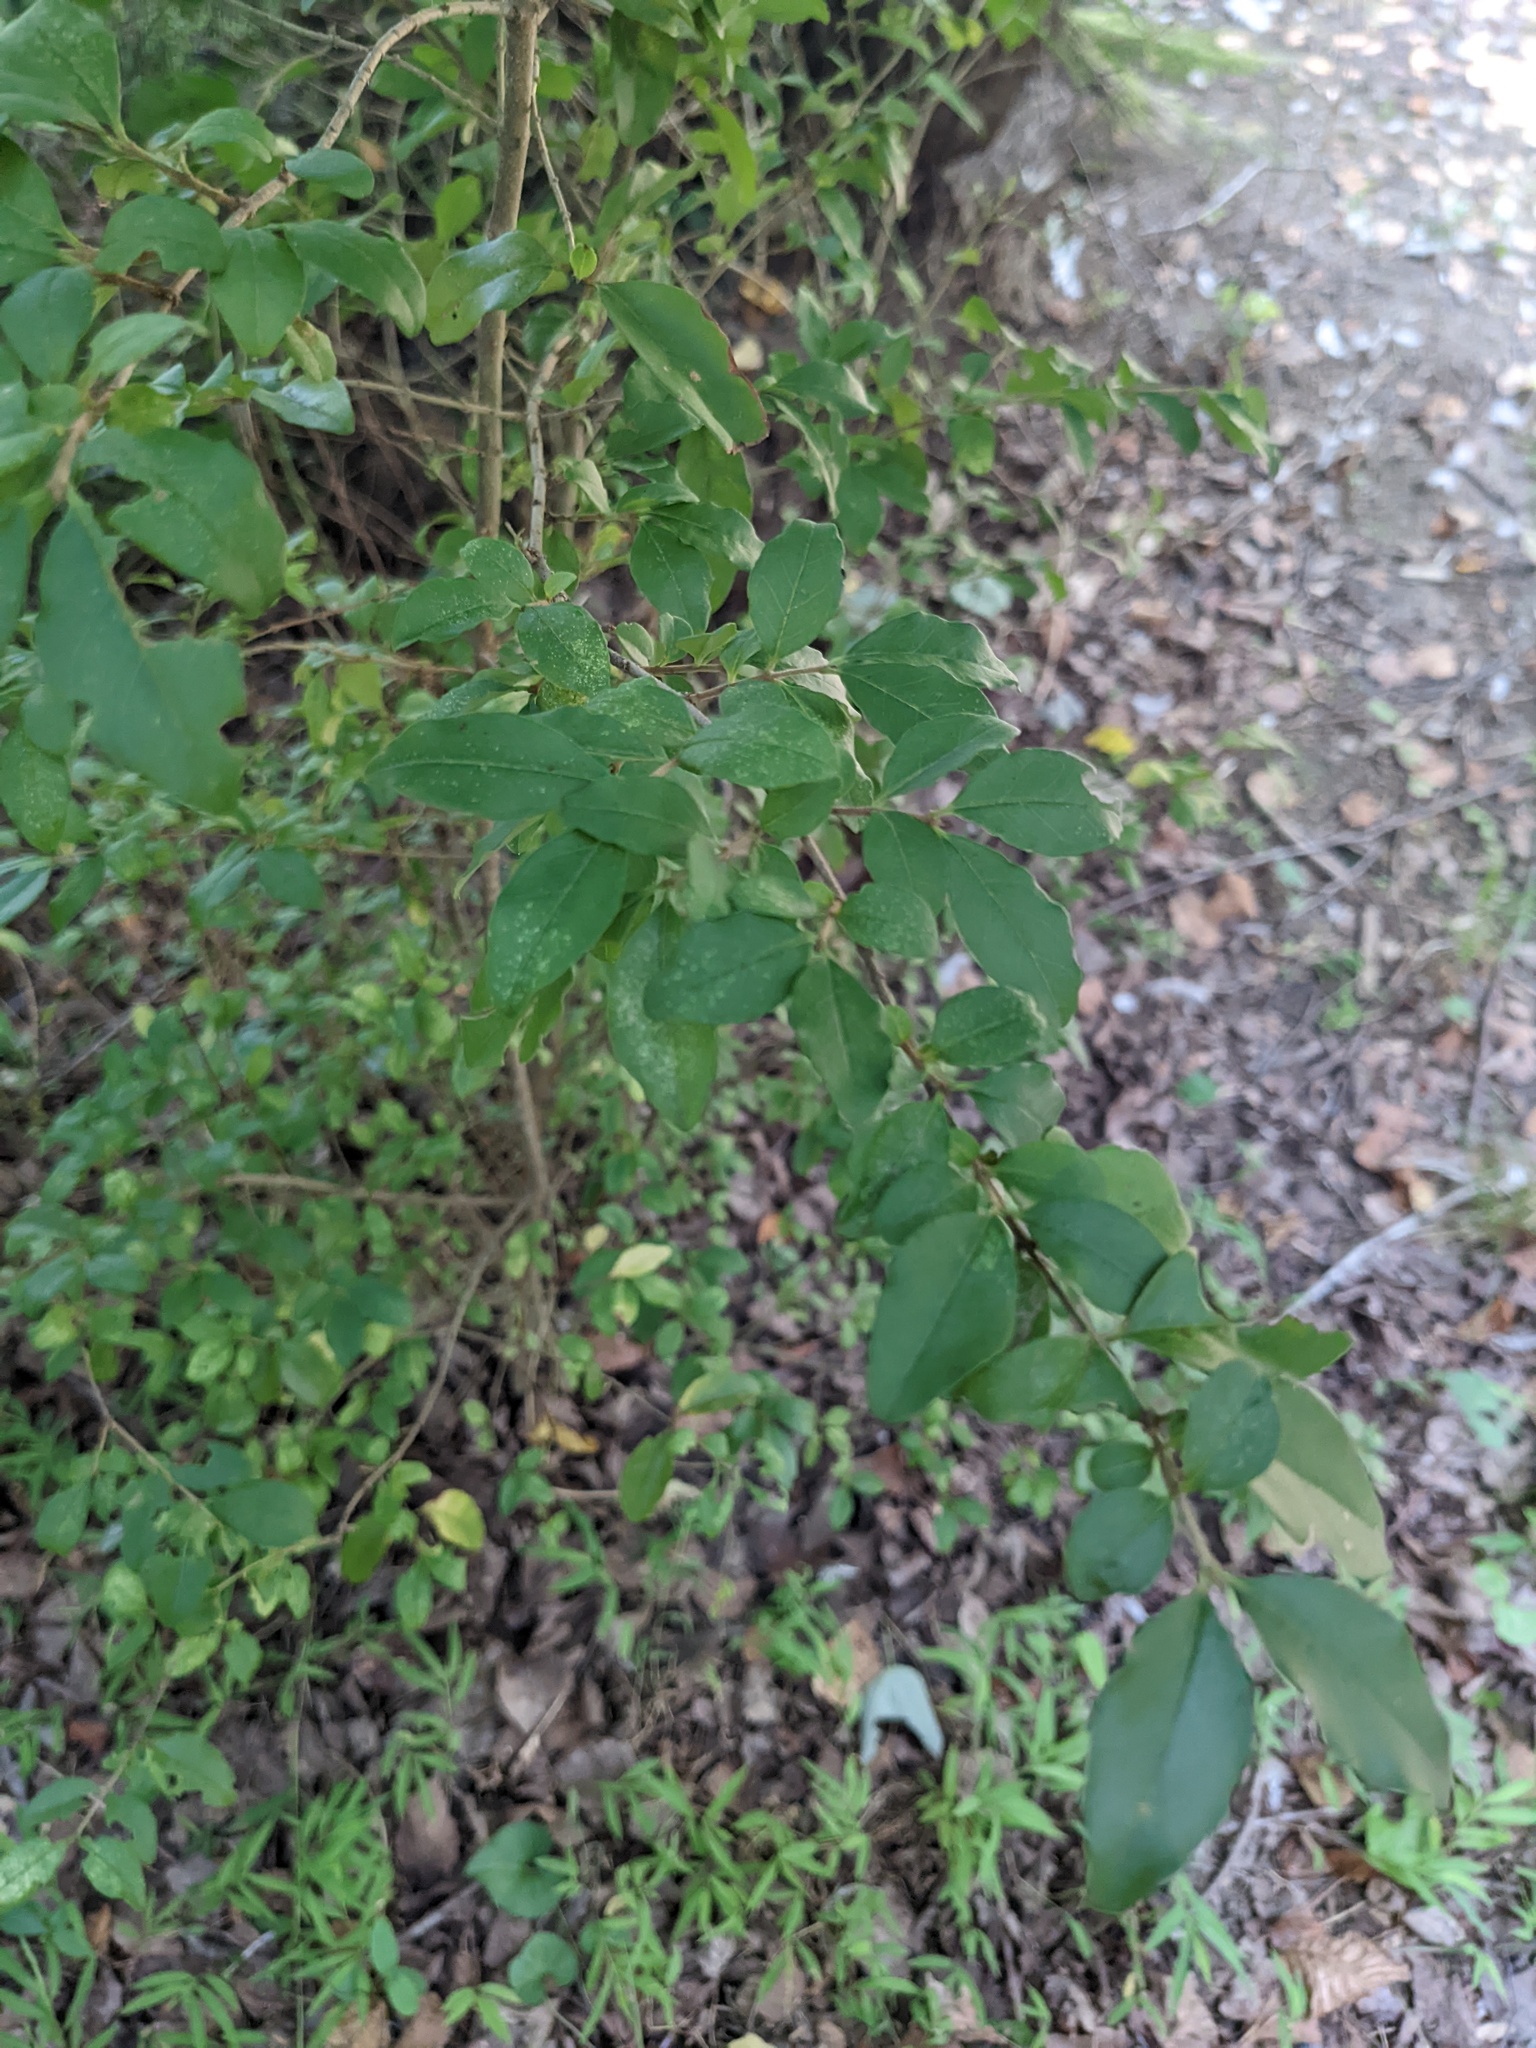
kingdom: Plantae
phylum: Tracheophyta
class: Magnoliopsida
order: Lamiales
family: Oleaceae
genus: Ligustrum
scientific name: Ligustrum sinense
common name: Chinese privet
